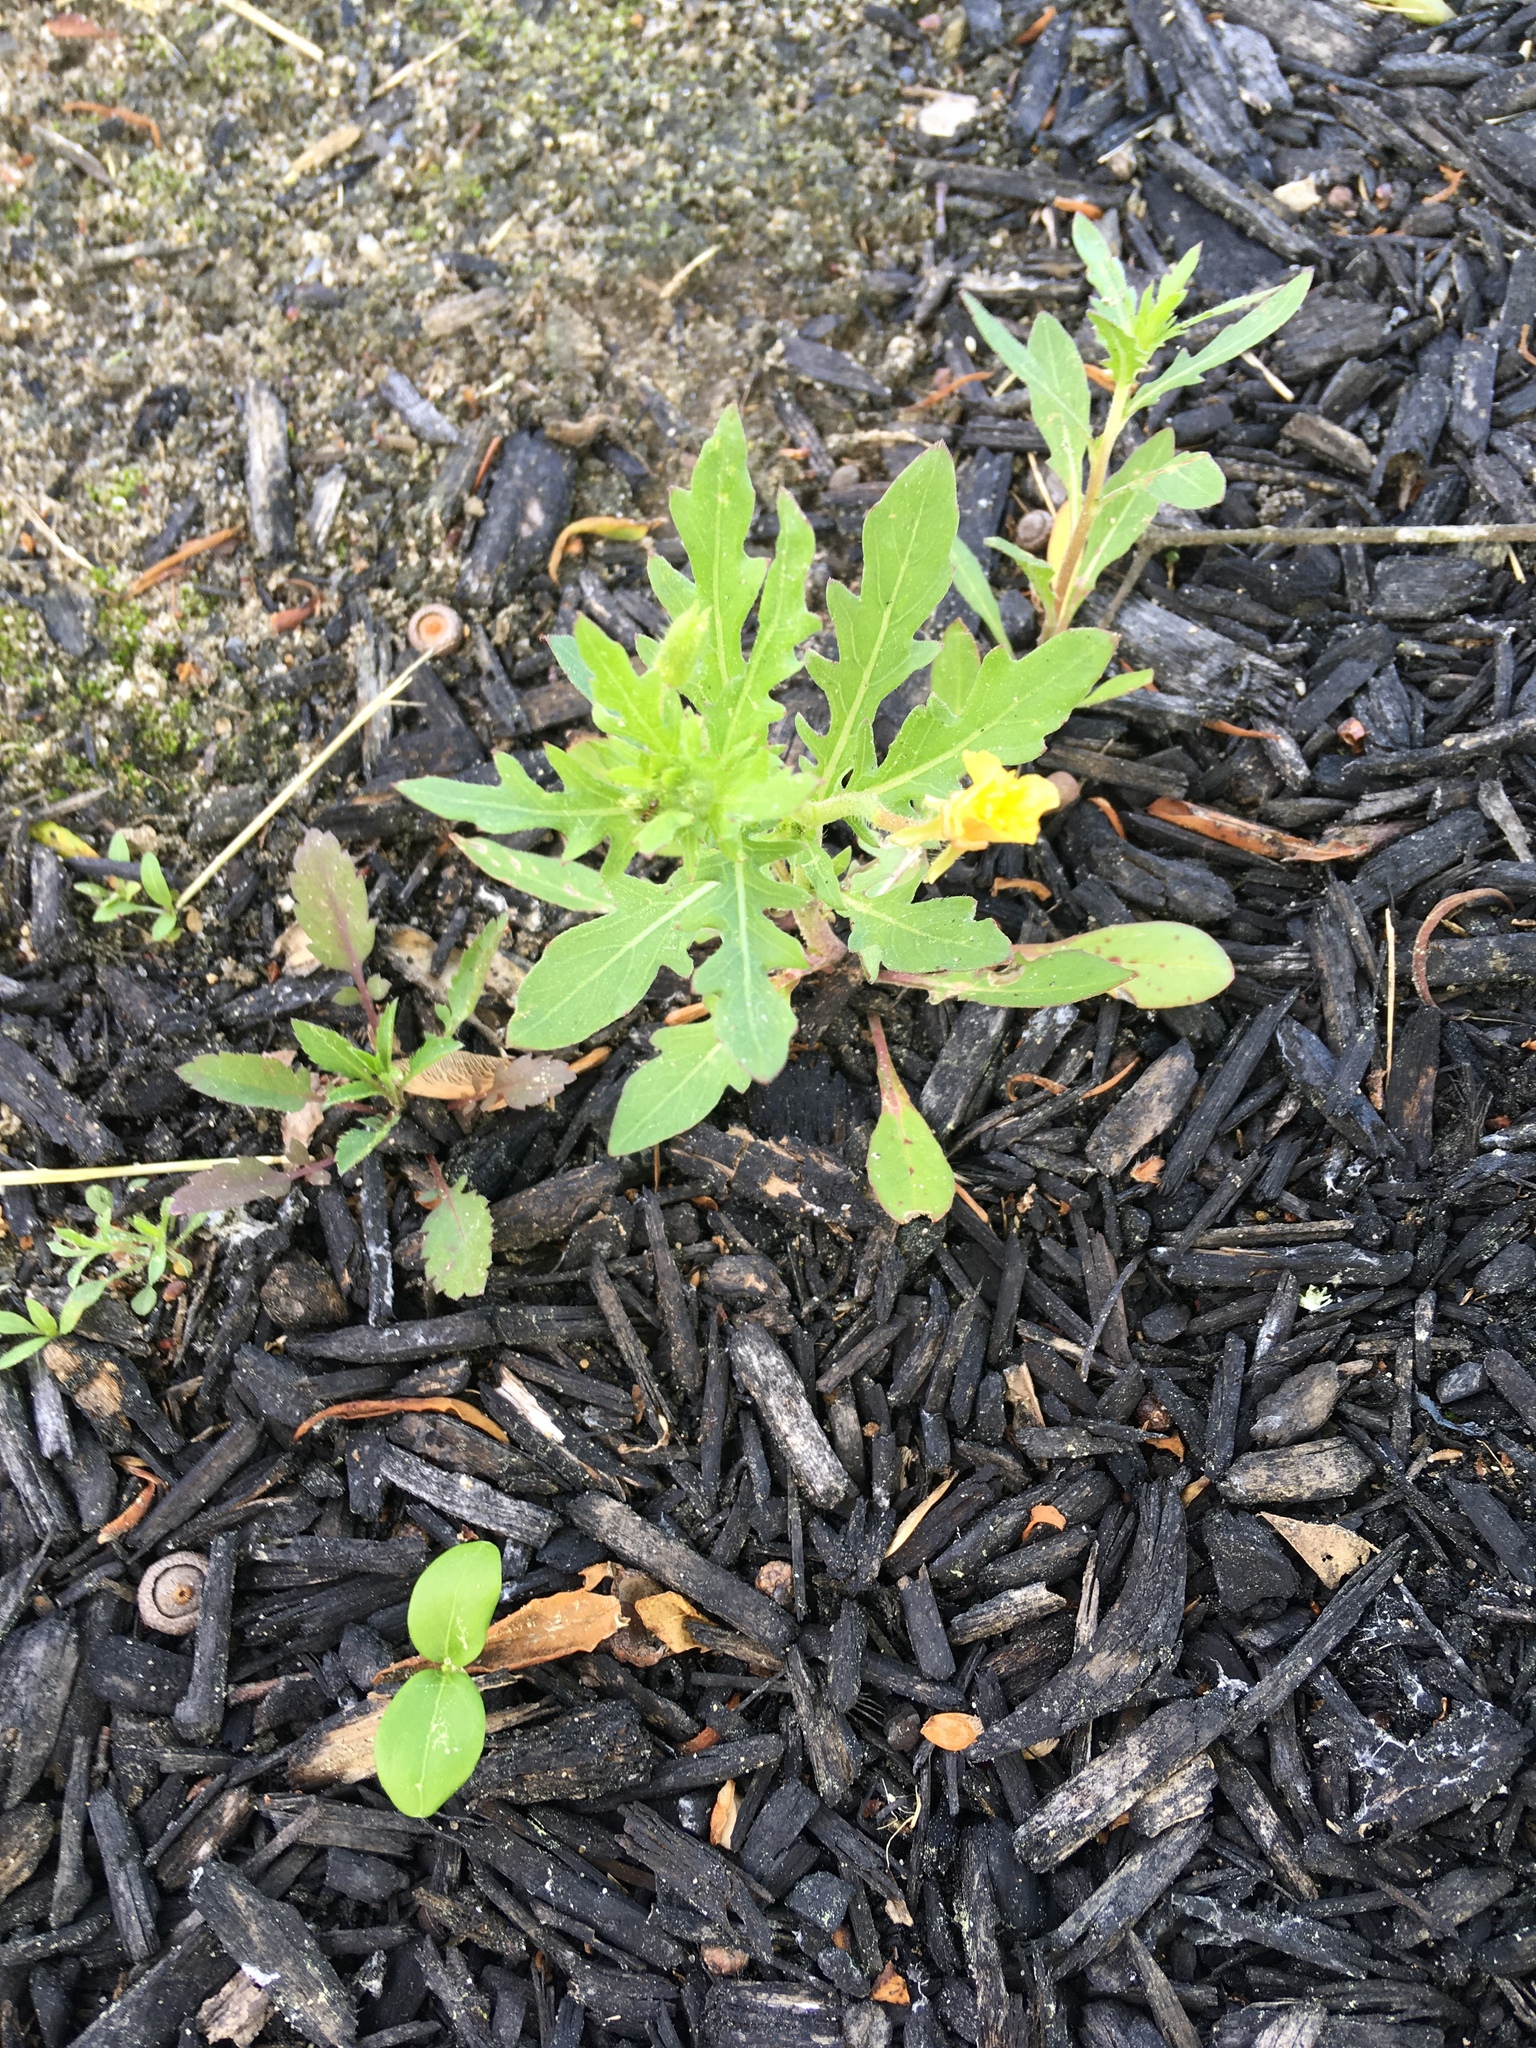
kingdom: Plantae
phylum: Tracheophyta
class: Magnoliopsida
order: Myrtales
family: Onagraceae
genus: Oenothera
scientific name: Oenothera laciniata
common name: Cut-leaved evening-primrose
